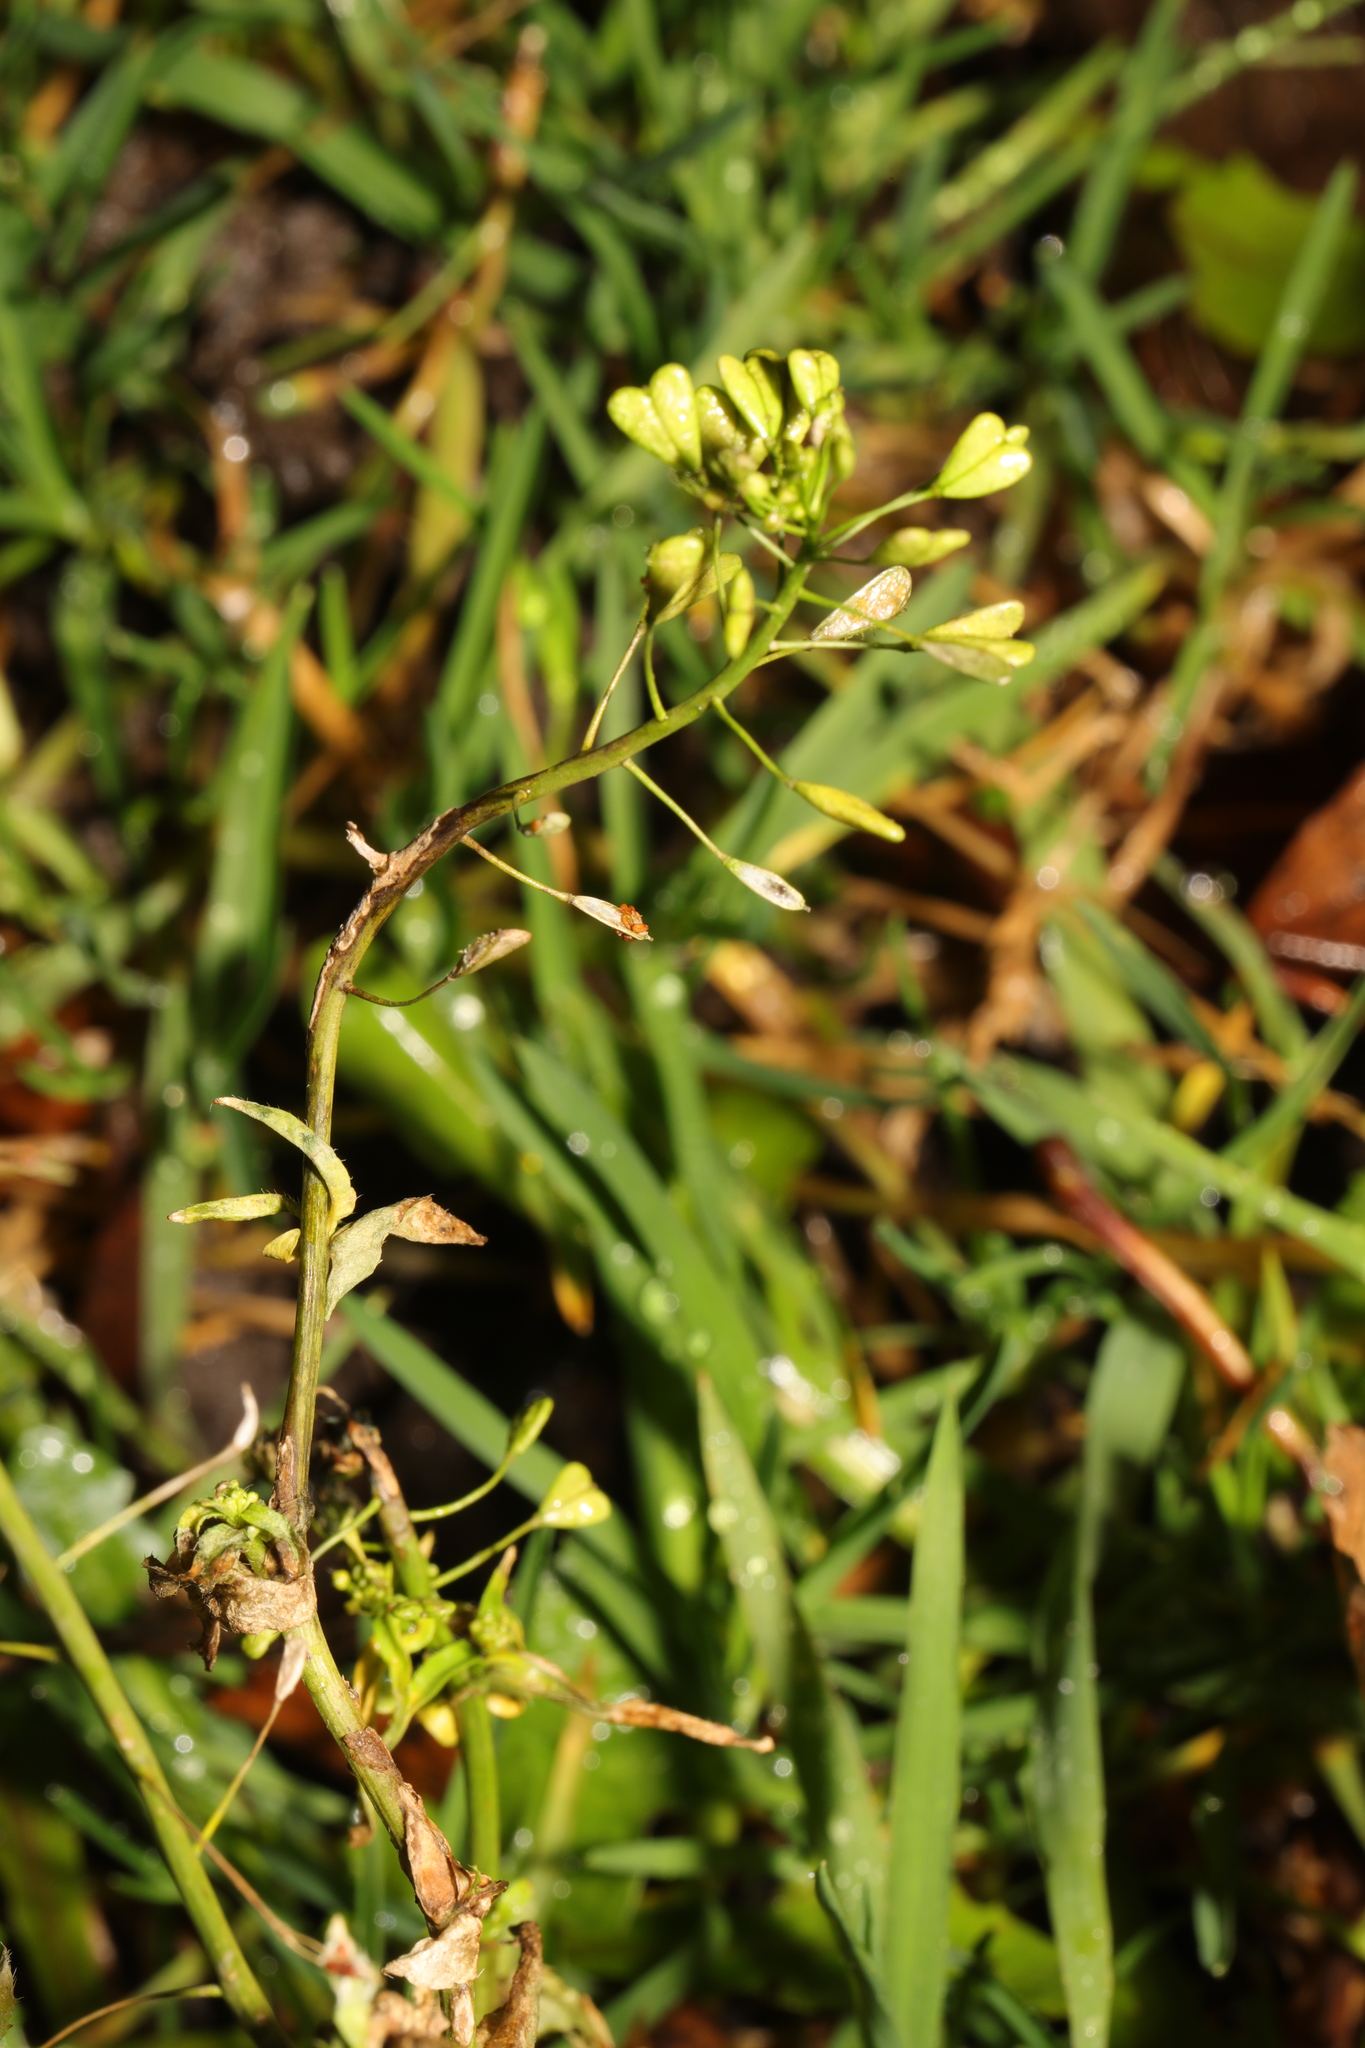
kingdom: Plantae
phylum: Tracheophyta
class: Magnoliopsida
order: Brassicales
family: Brassicaceae
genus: Capsella
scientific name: Capsella bursa-pastoris
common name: Shepherd's purse
